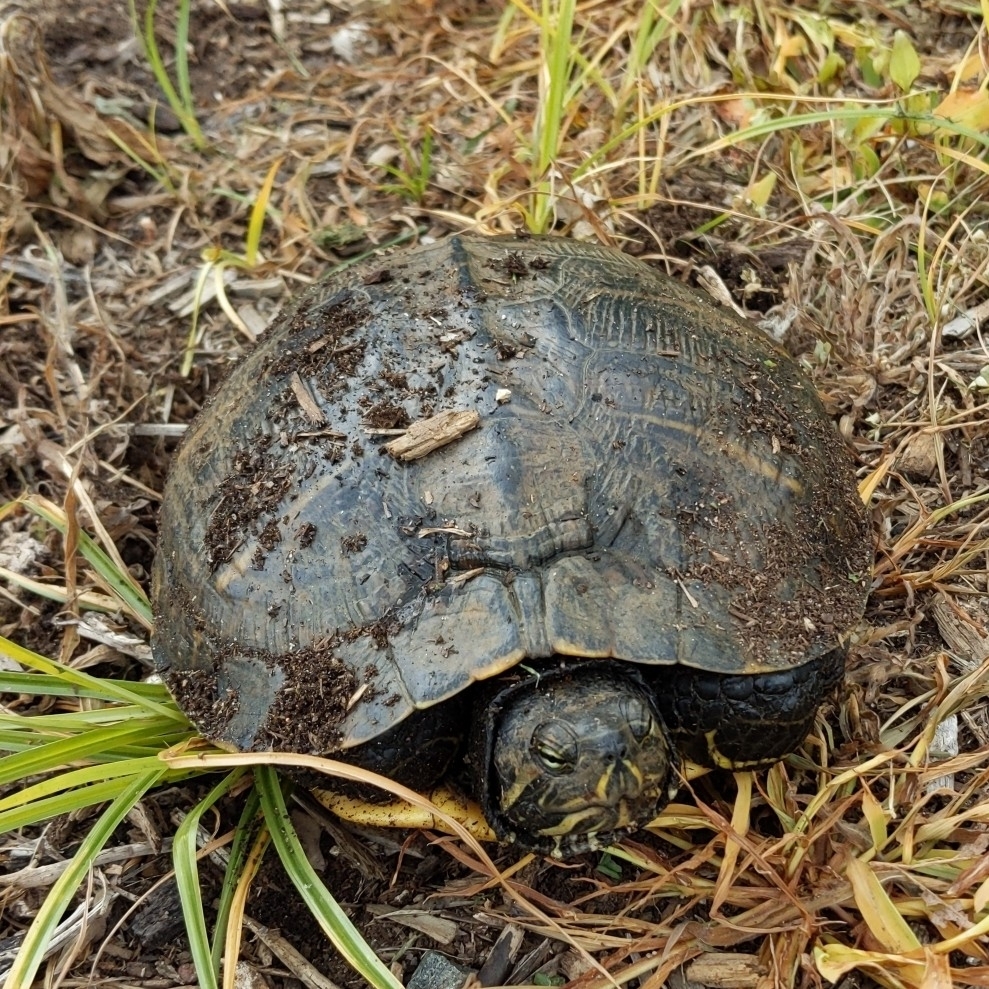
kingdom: Animalia
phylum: Chordata
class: Testudines
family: Emydidae
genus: Trachemys
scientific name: Trachemys scripta
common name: Slider
